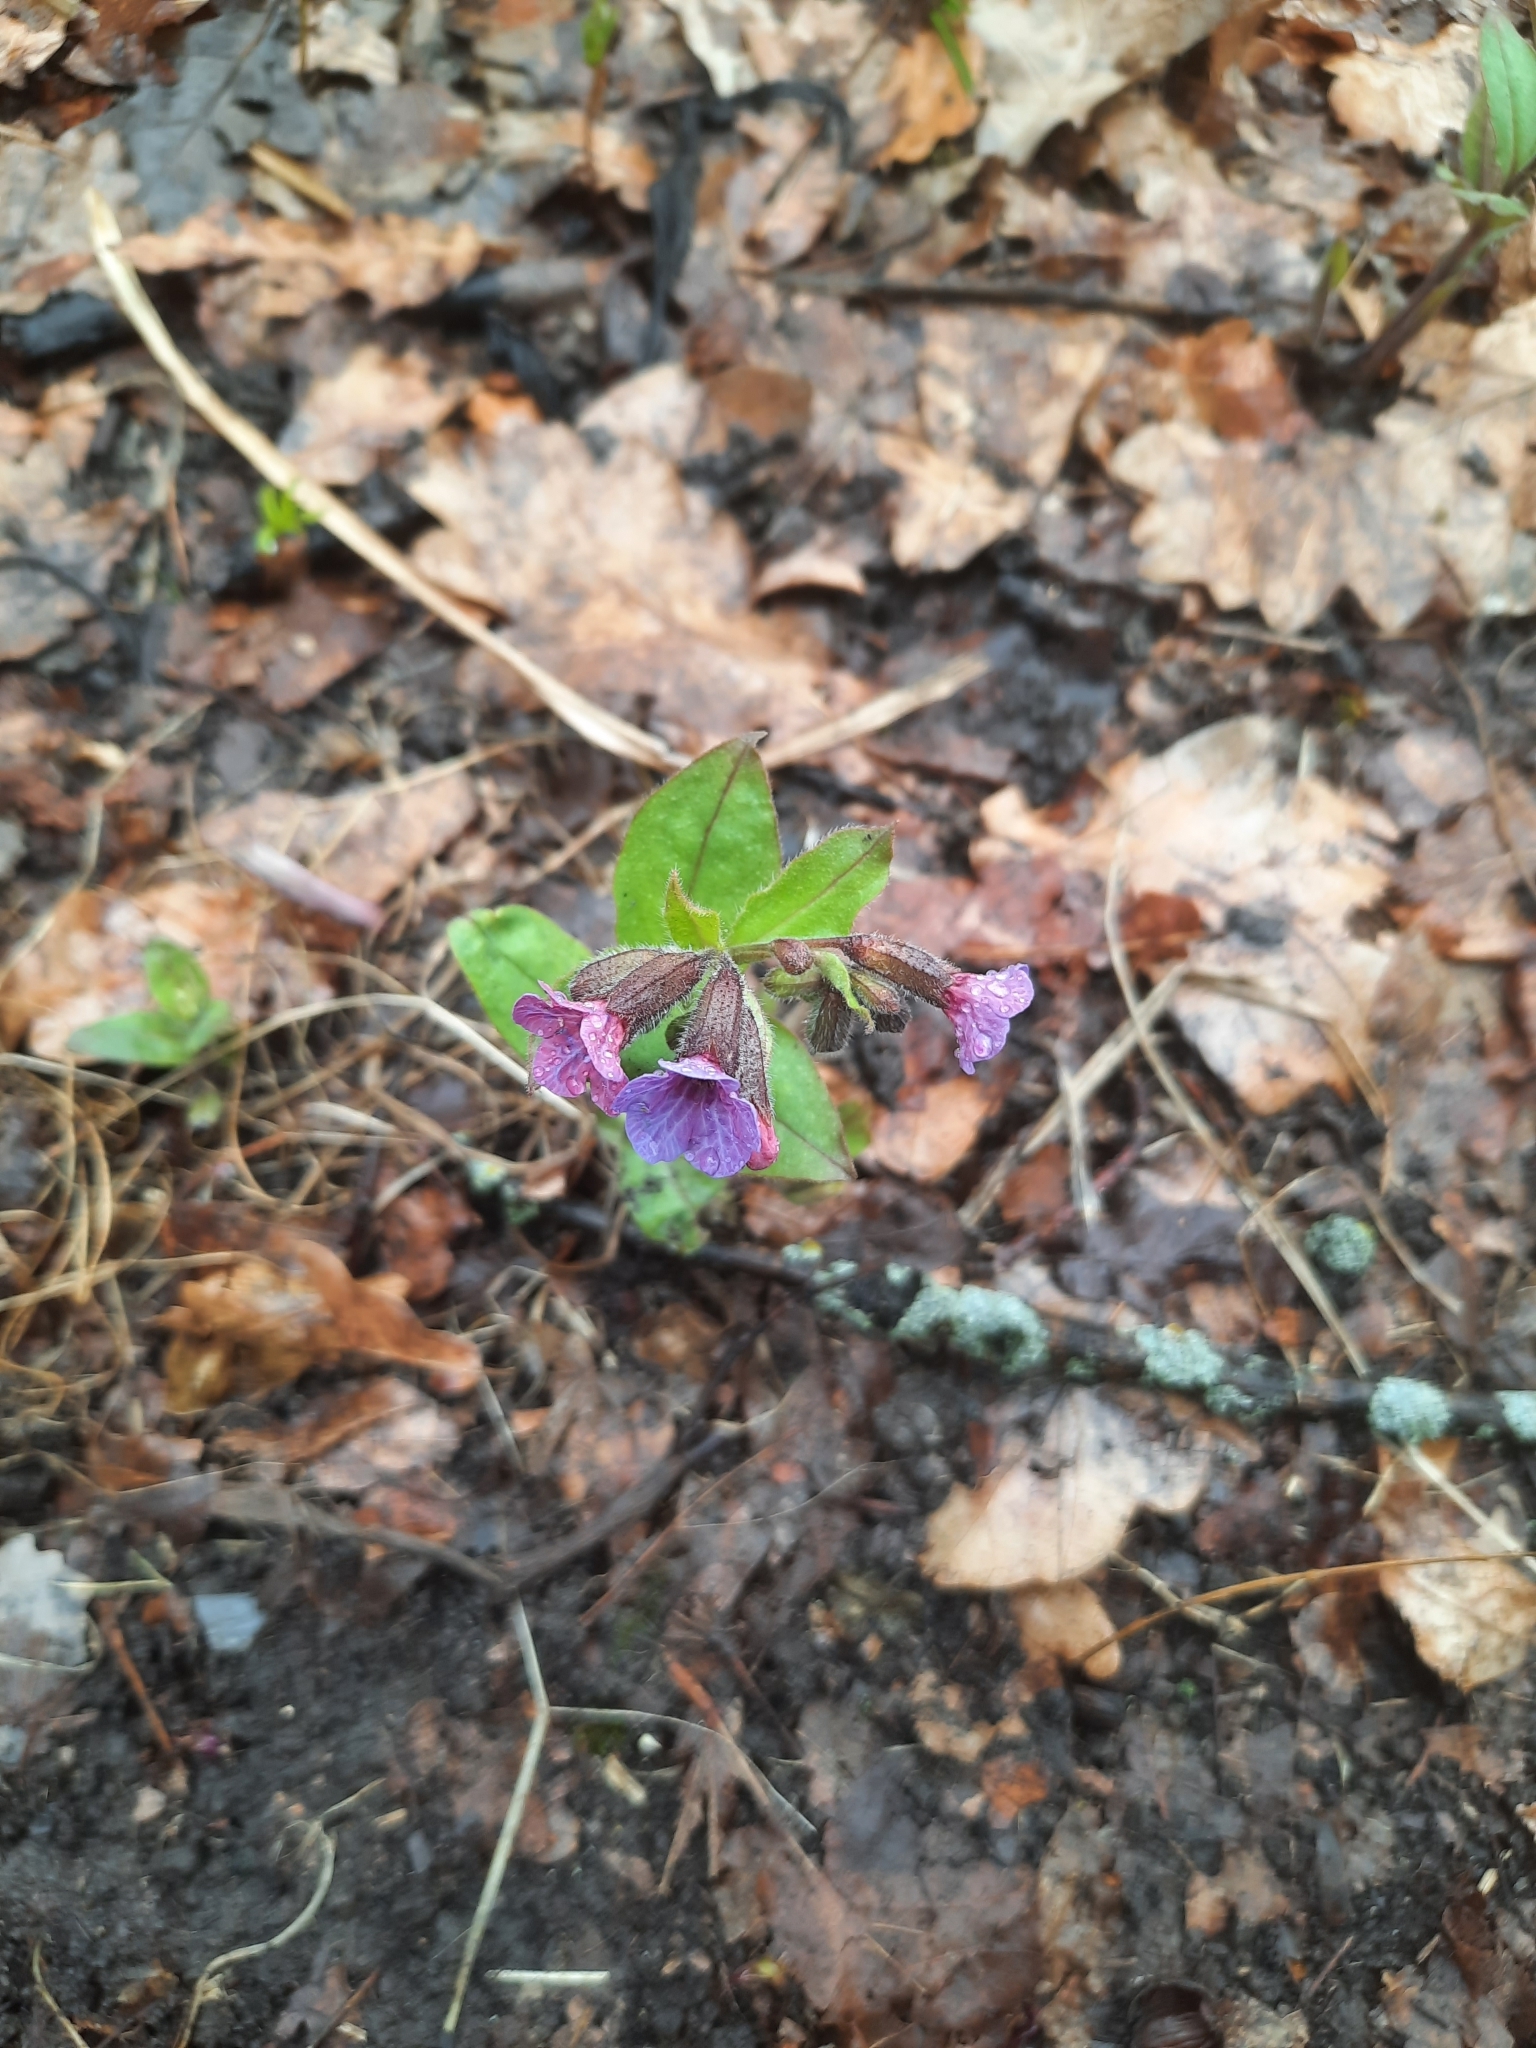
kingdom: Plantae
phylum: Tracheophyta
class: Magnoliopsida
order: Boraginales
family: Boraginaceae
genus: Pulmonaria
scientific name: Pulmonaria obscura
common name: Suffolk lungwort
